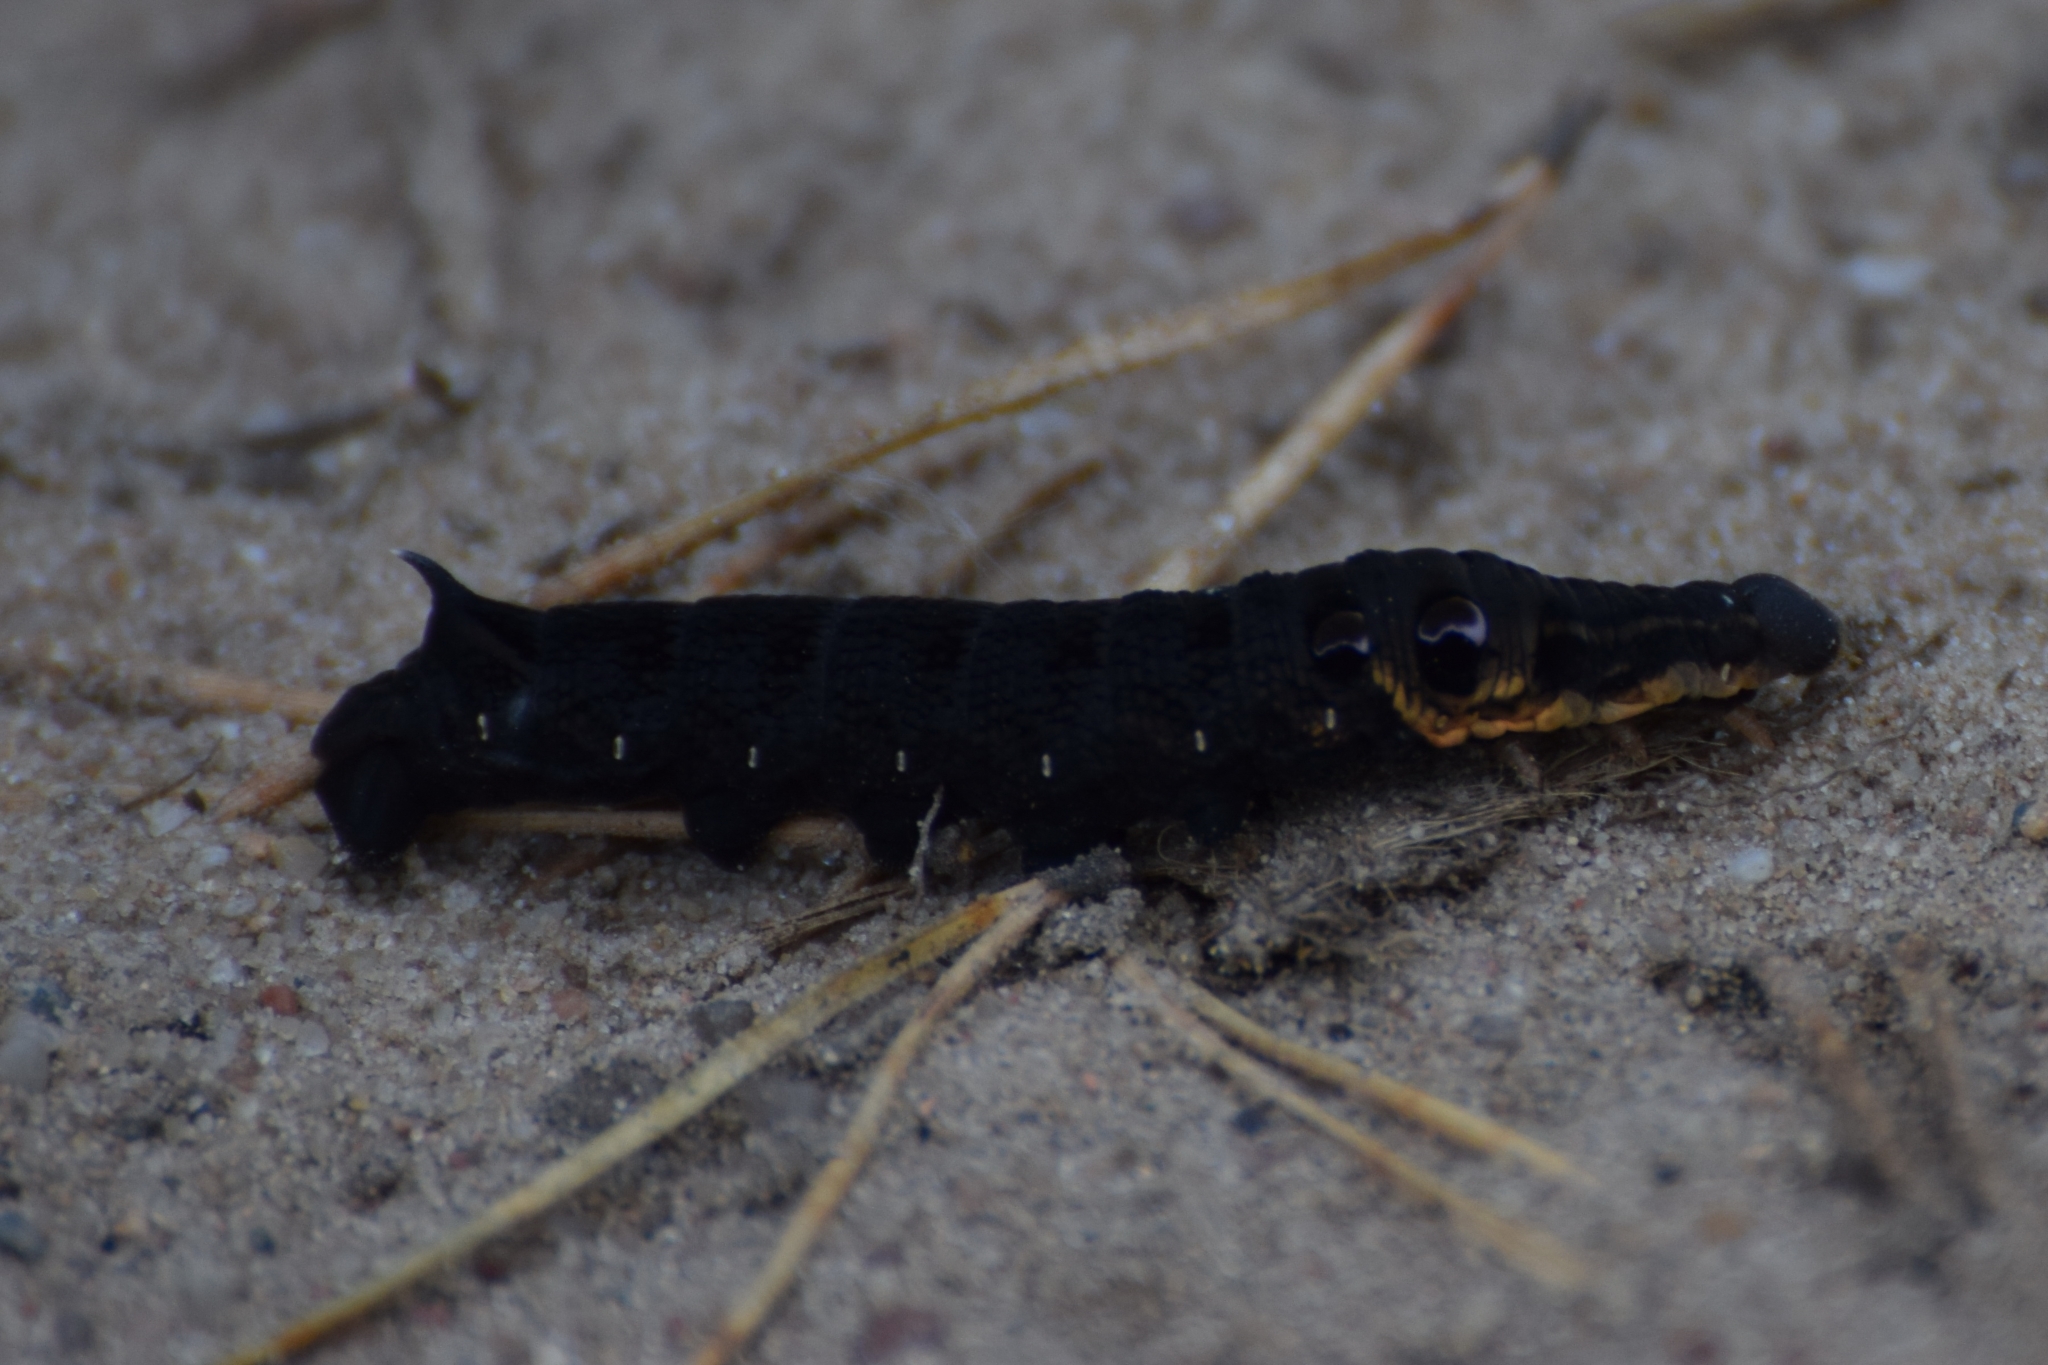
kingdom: Animalia
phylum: Arthropoda
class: Insecta
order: Lepidoptera
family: Sphingidae
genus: Deilephila
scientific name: Deilephila elpenor
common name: Elephant hawk-moth
